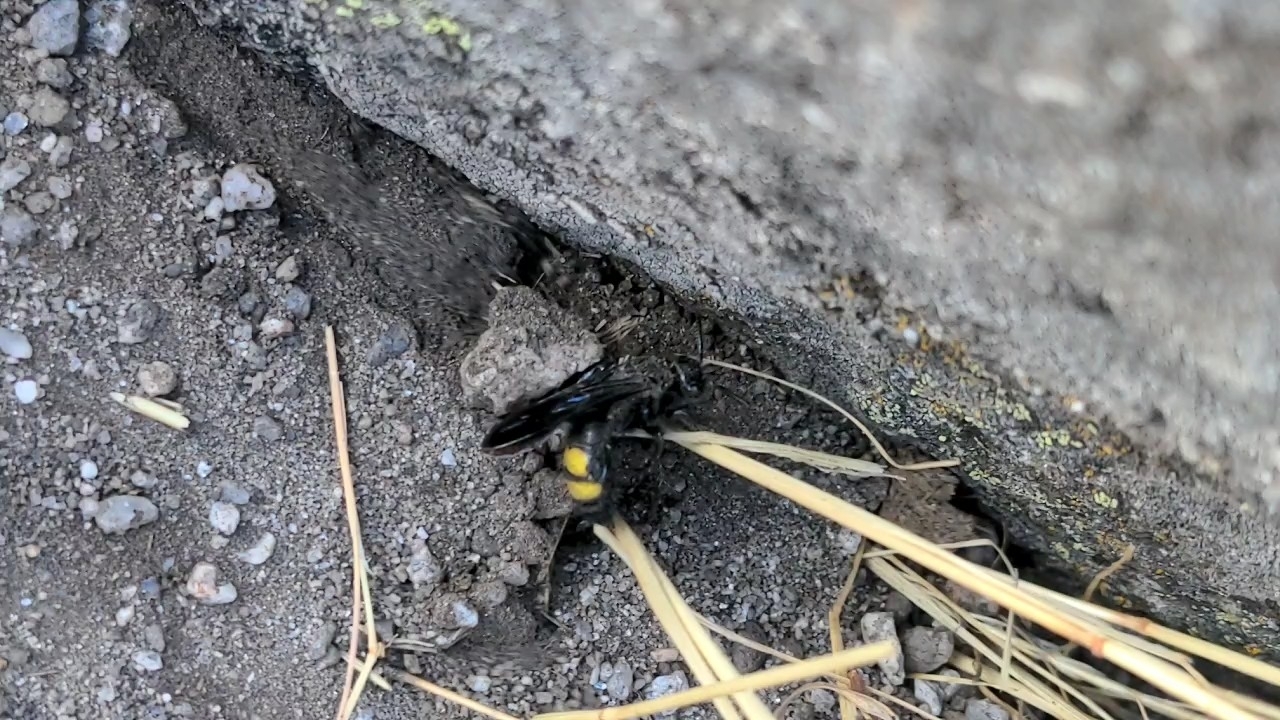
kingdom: Animalia
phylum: Arthropoda
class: Insecta
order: Hymenoptera
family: Scoliidae
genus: Scolia
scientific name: Scolia hirta
